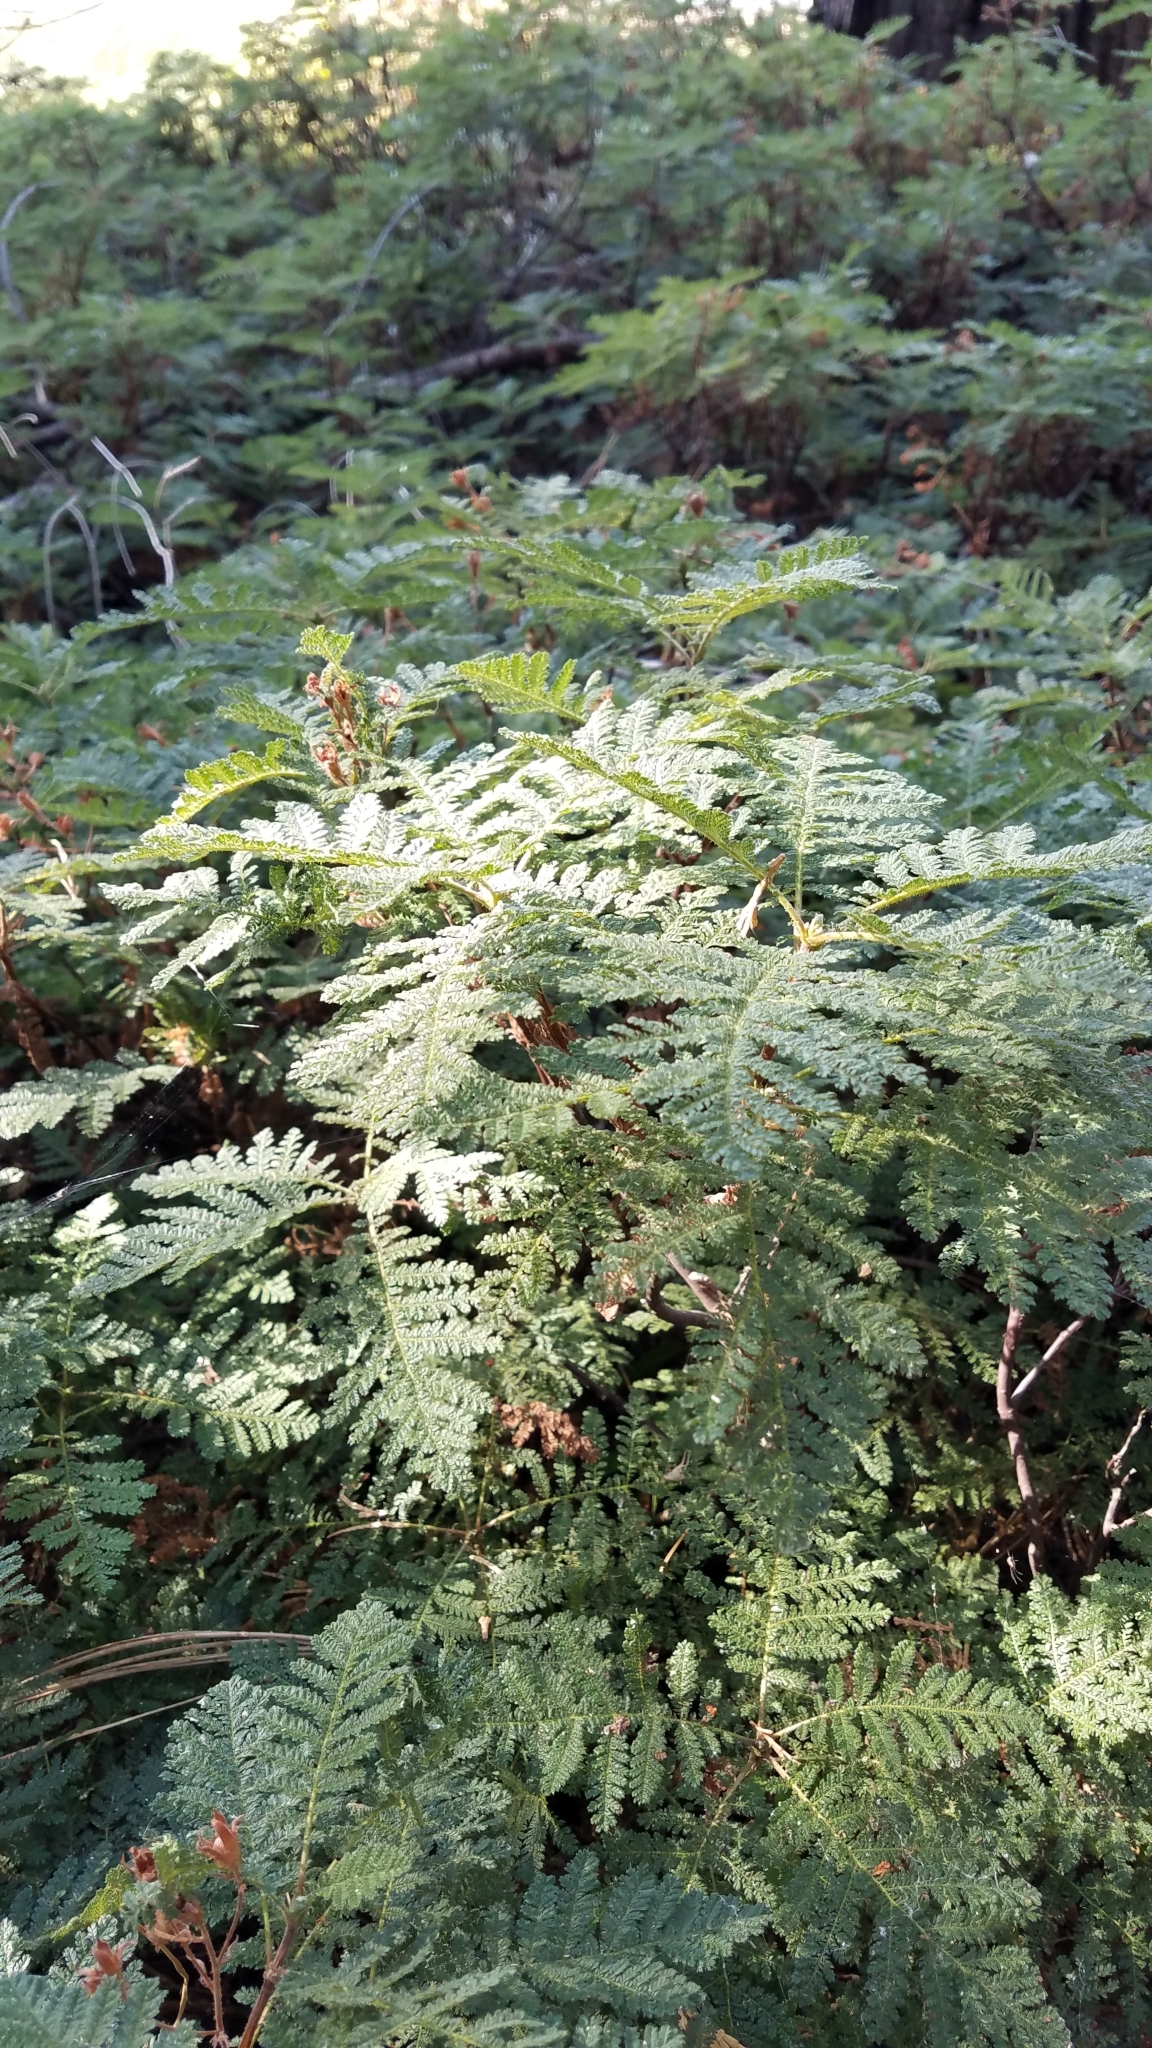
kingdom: Plantae
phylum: Tracheophyta
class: Magnoliopsida
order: Rosales
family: Rosaceae
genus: Chamaebatia
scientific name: Chamaebatia foliolosa
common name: Mountain misery
